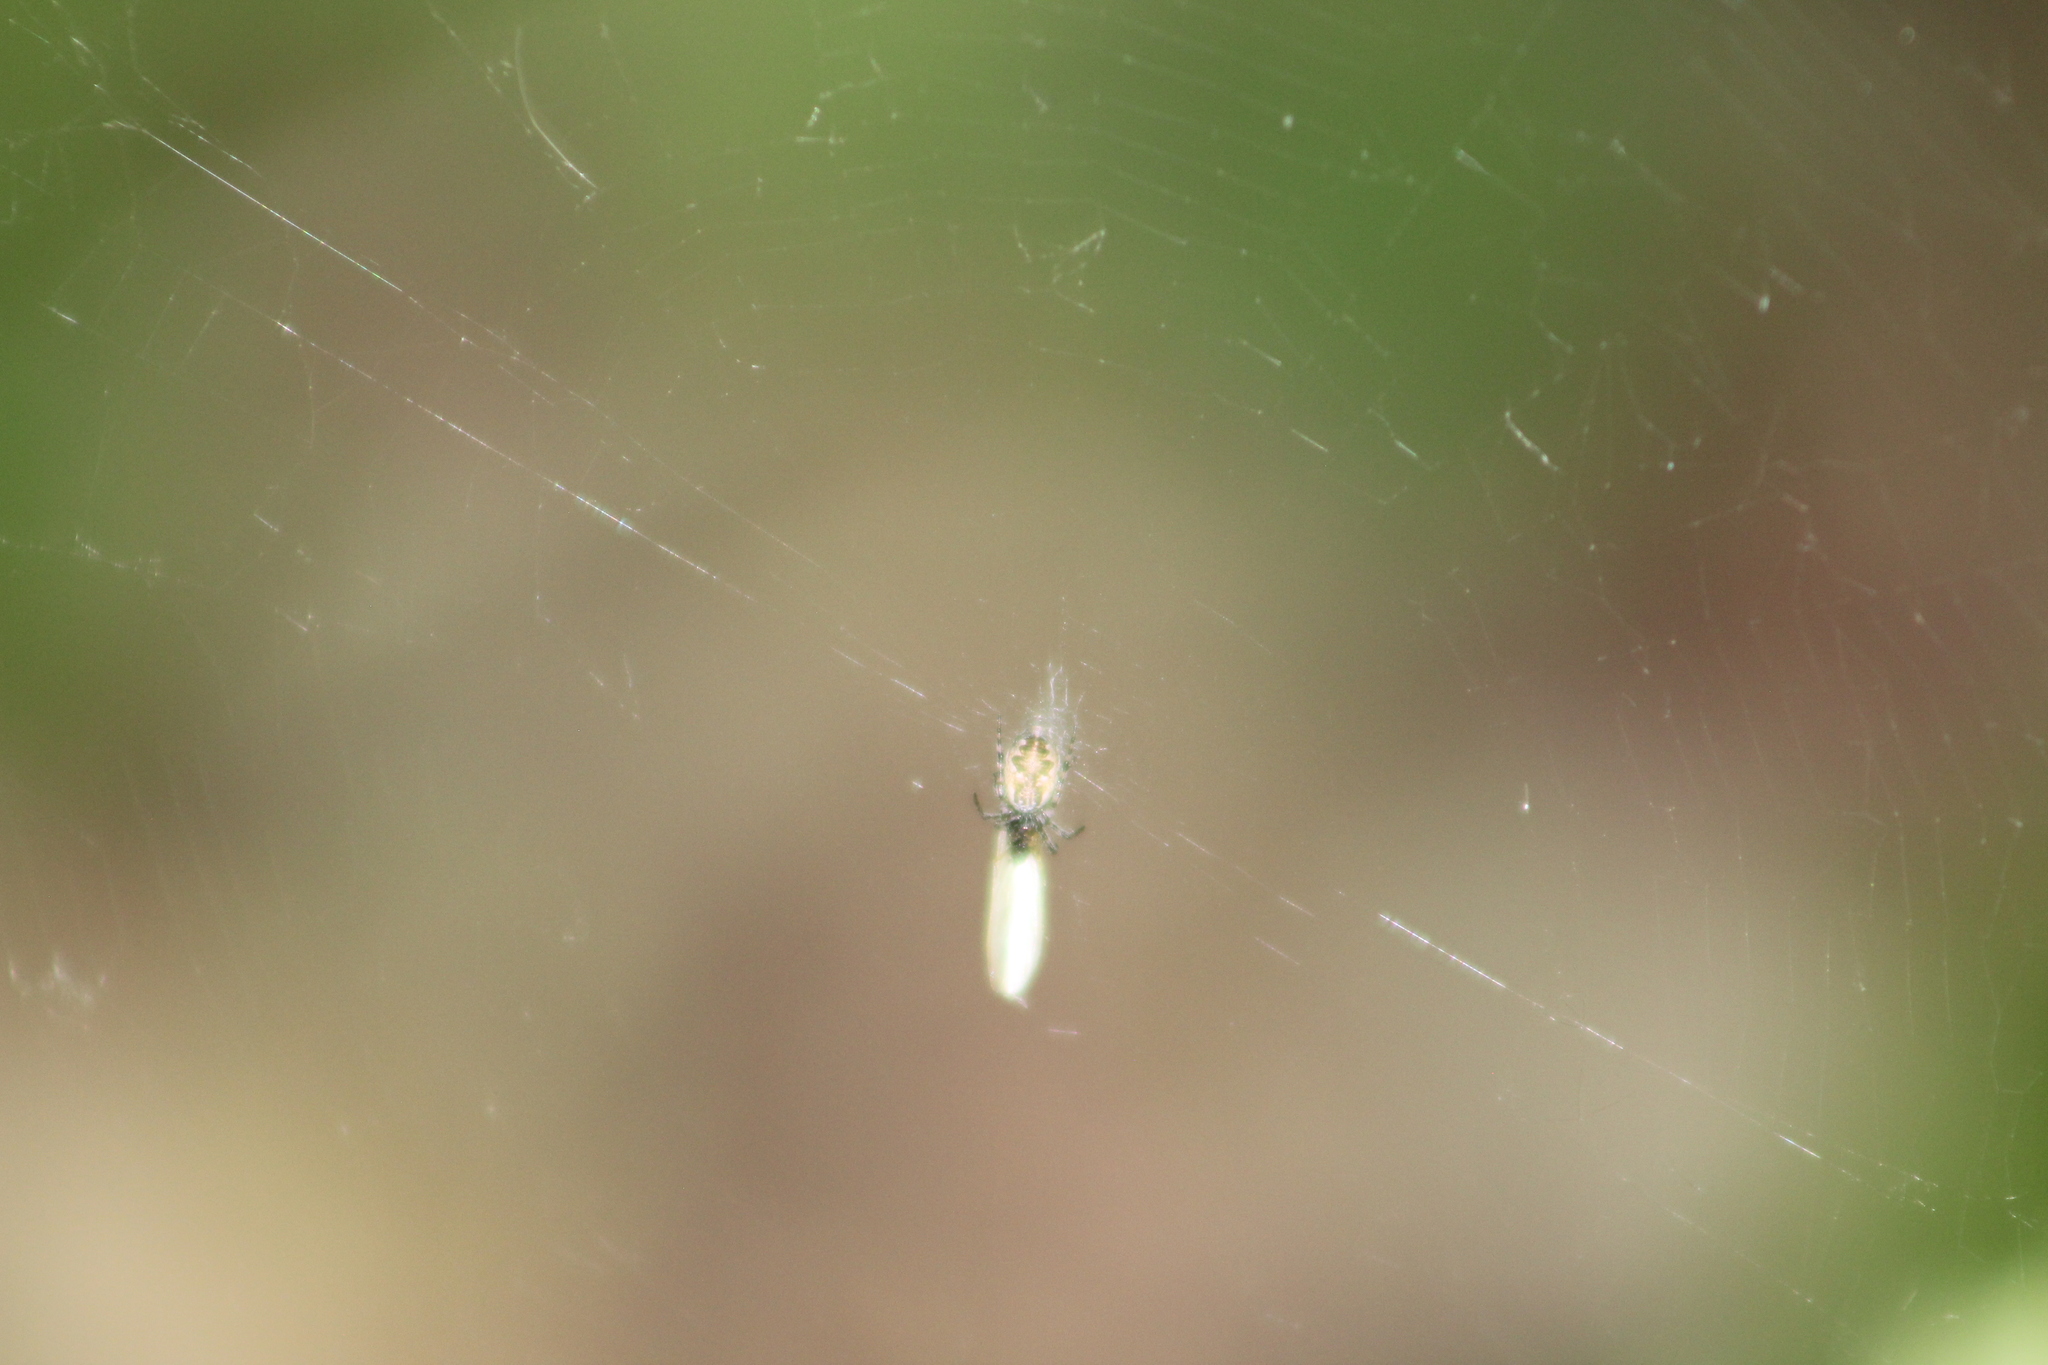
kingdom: Animalia
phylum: Arthropoda
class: Arachnida
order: Araneae
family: Araneidae
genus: Cyclosa
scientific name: Cyclosa conica
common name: Conical trashline orbweaver
